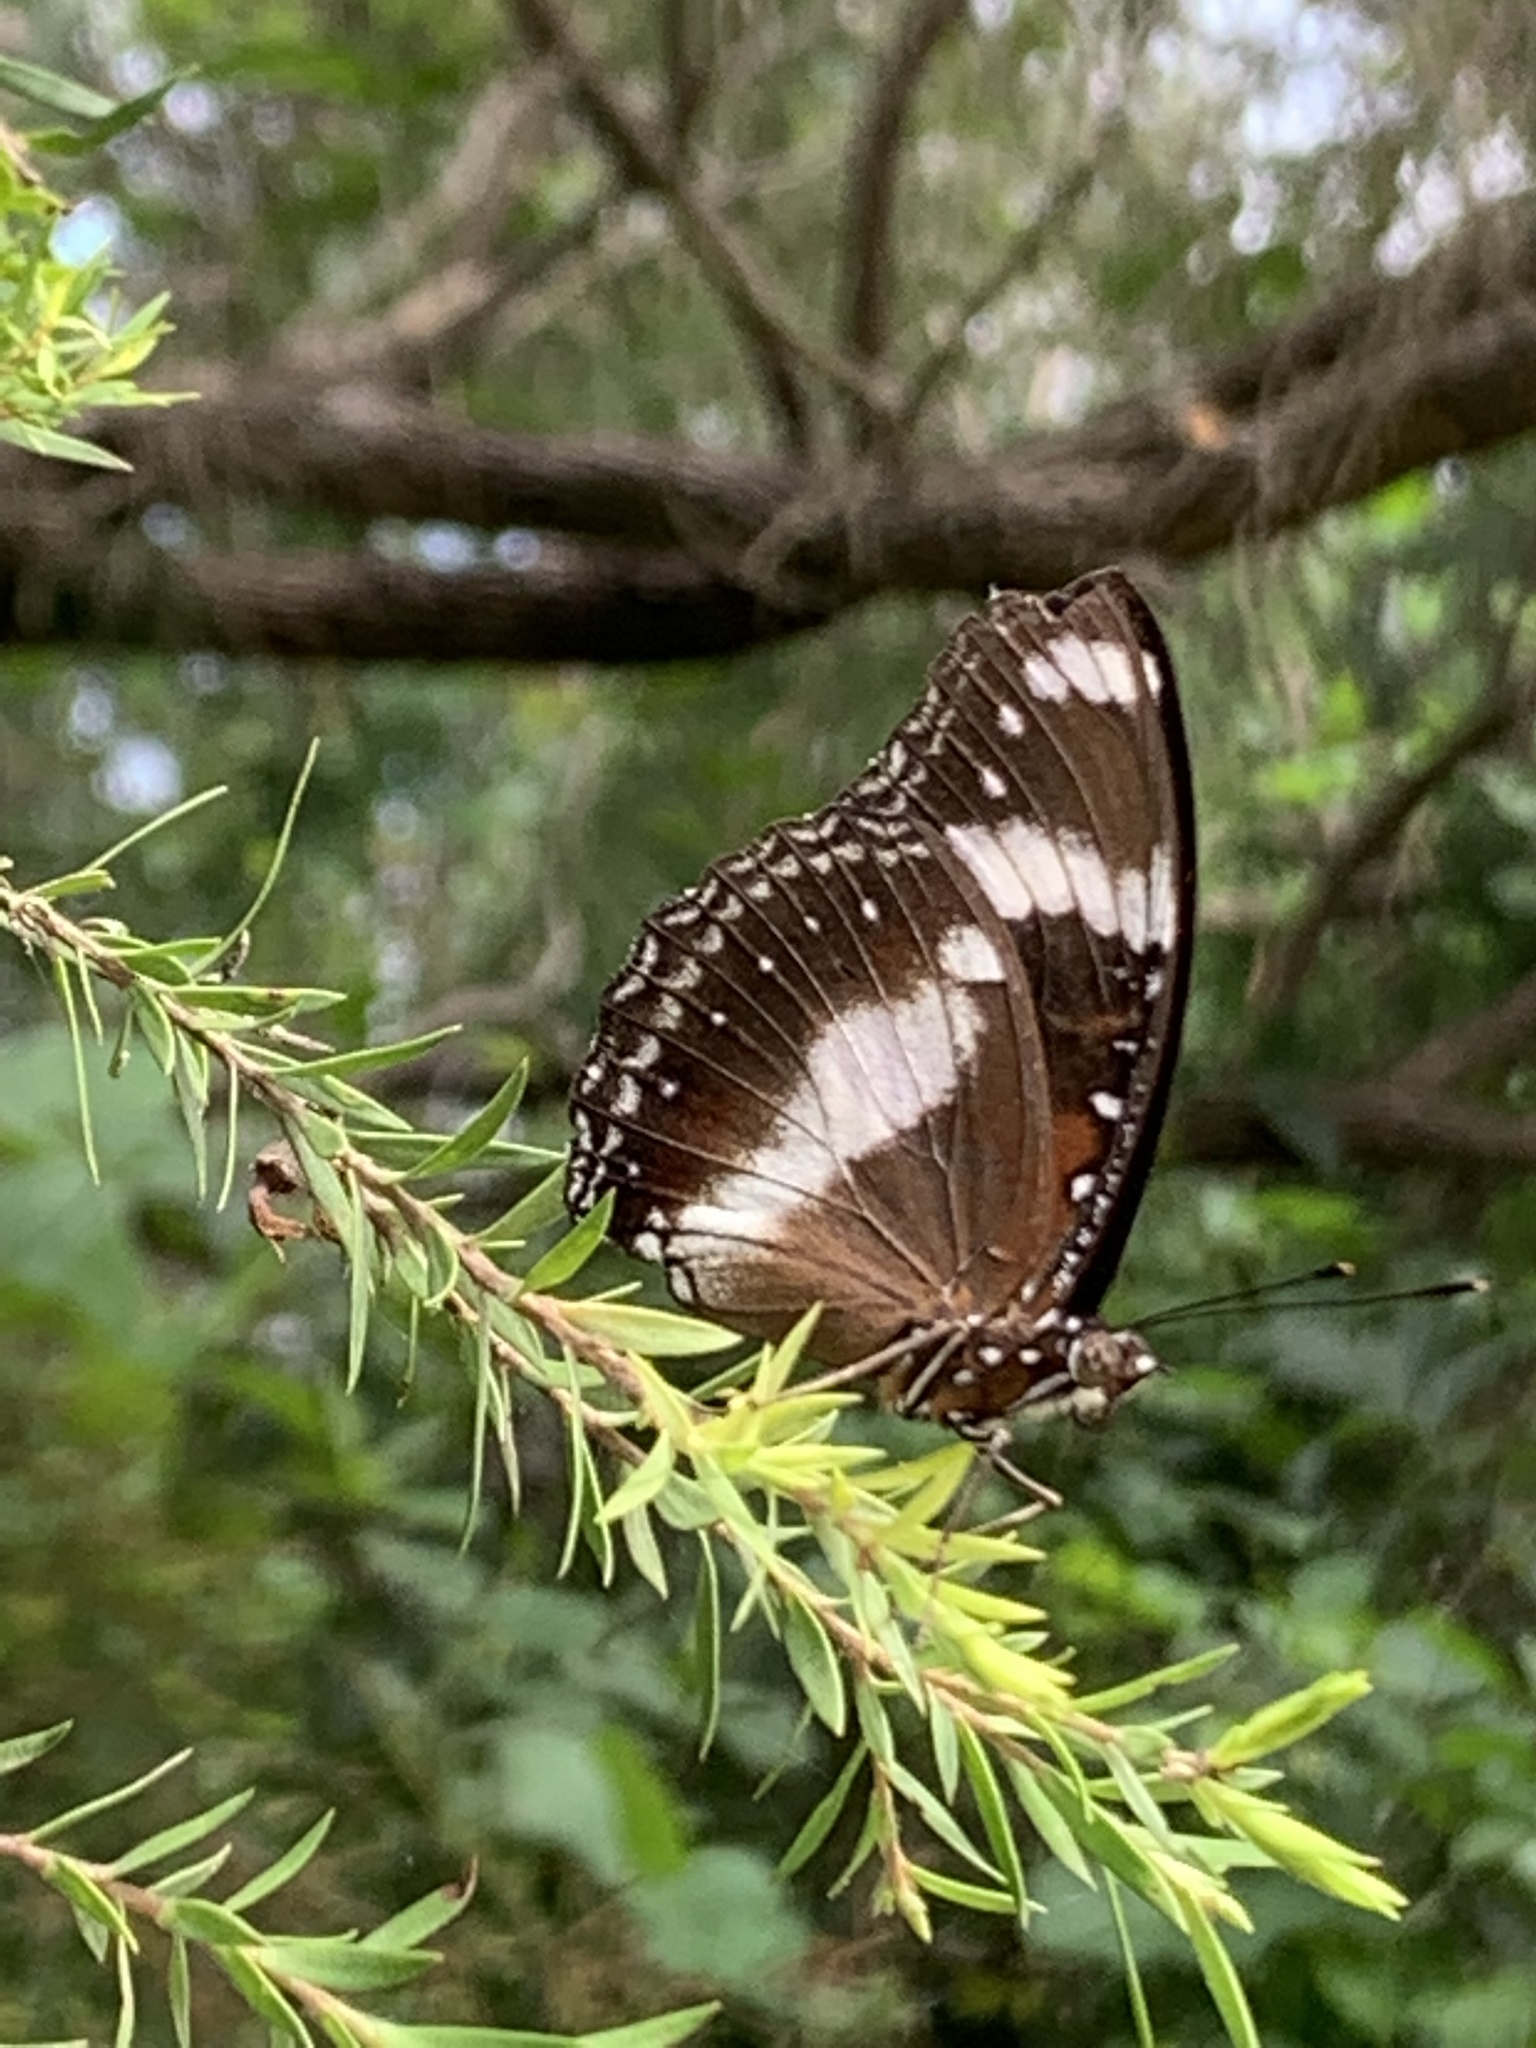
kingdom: Animalia
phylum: Arthropoda
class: Insecta
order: Lepidoptera
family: Nymphalidae
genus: Hypolimnas
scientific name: Hypolimnas bolina
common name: Great eggfly
